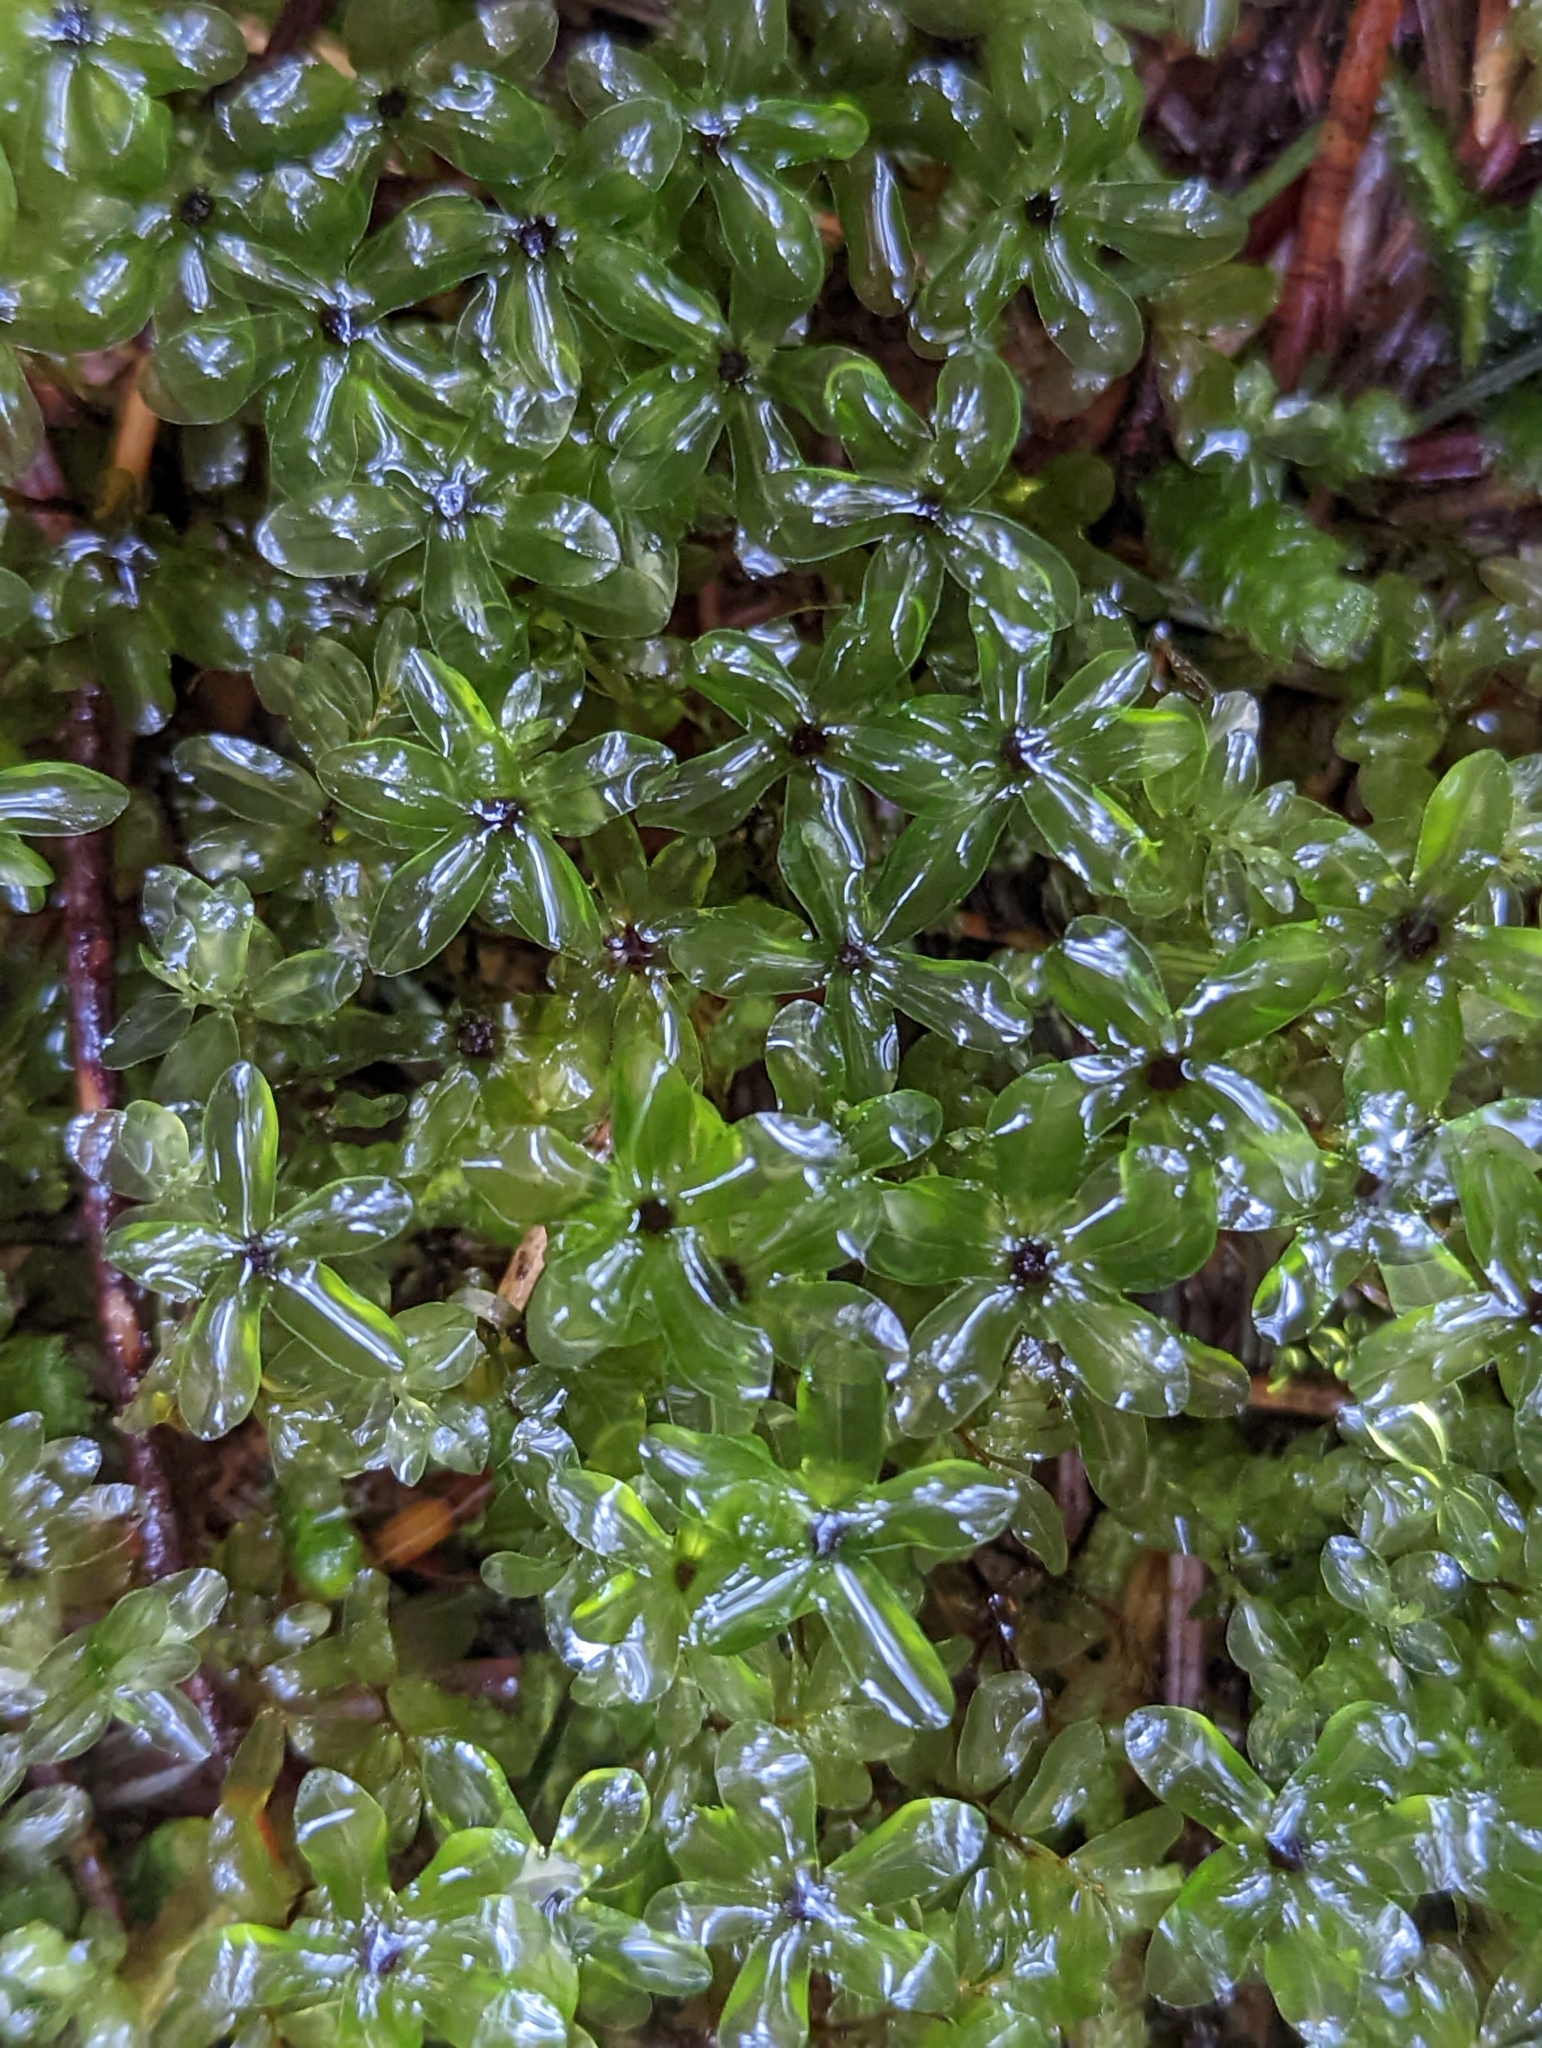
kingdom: Plantae
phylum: Bryophyta
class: Bryopsida
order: Bryales
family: Mniaceae
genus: Rhizomnium
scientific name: Rhizomnium glabrescens
